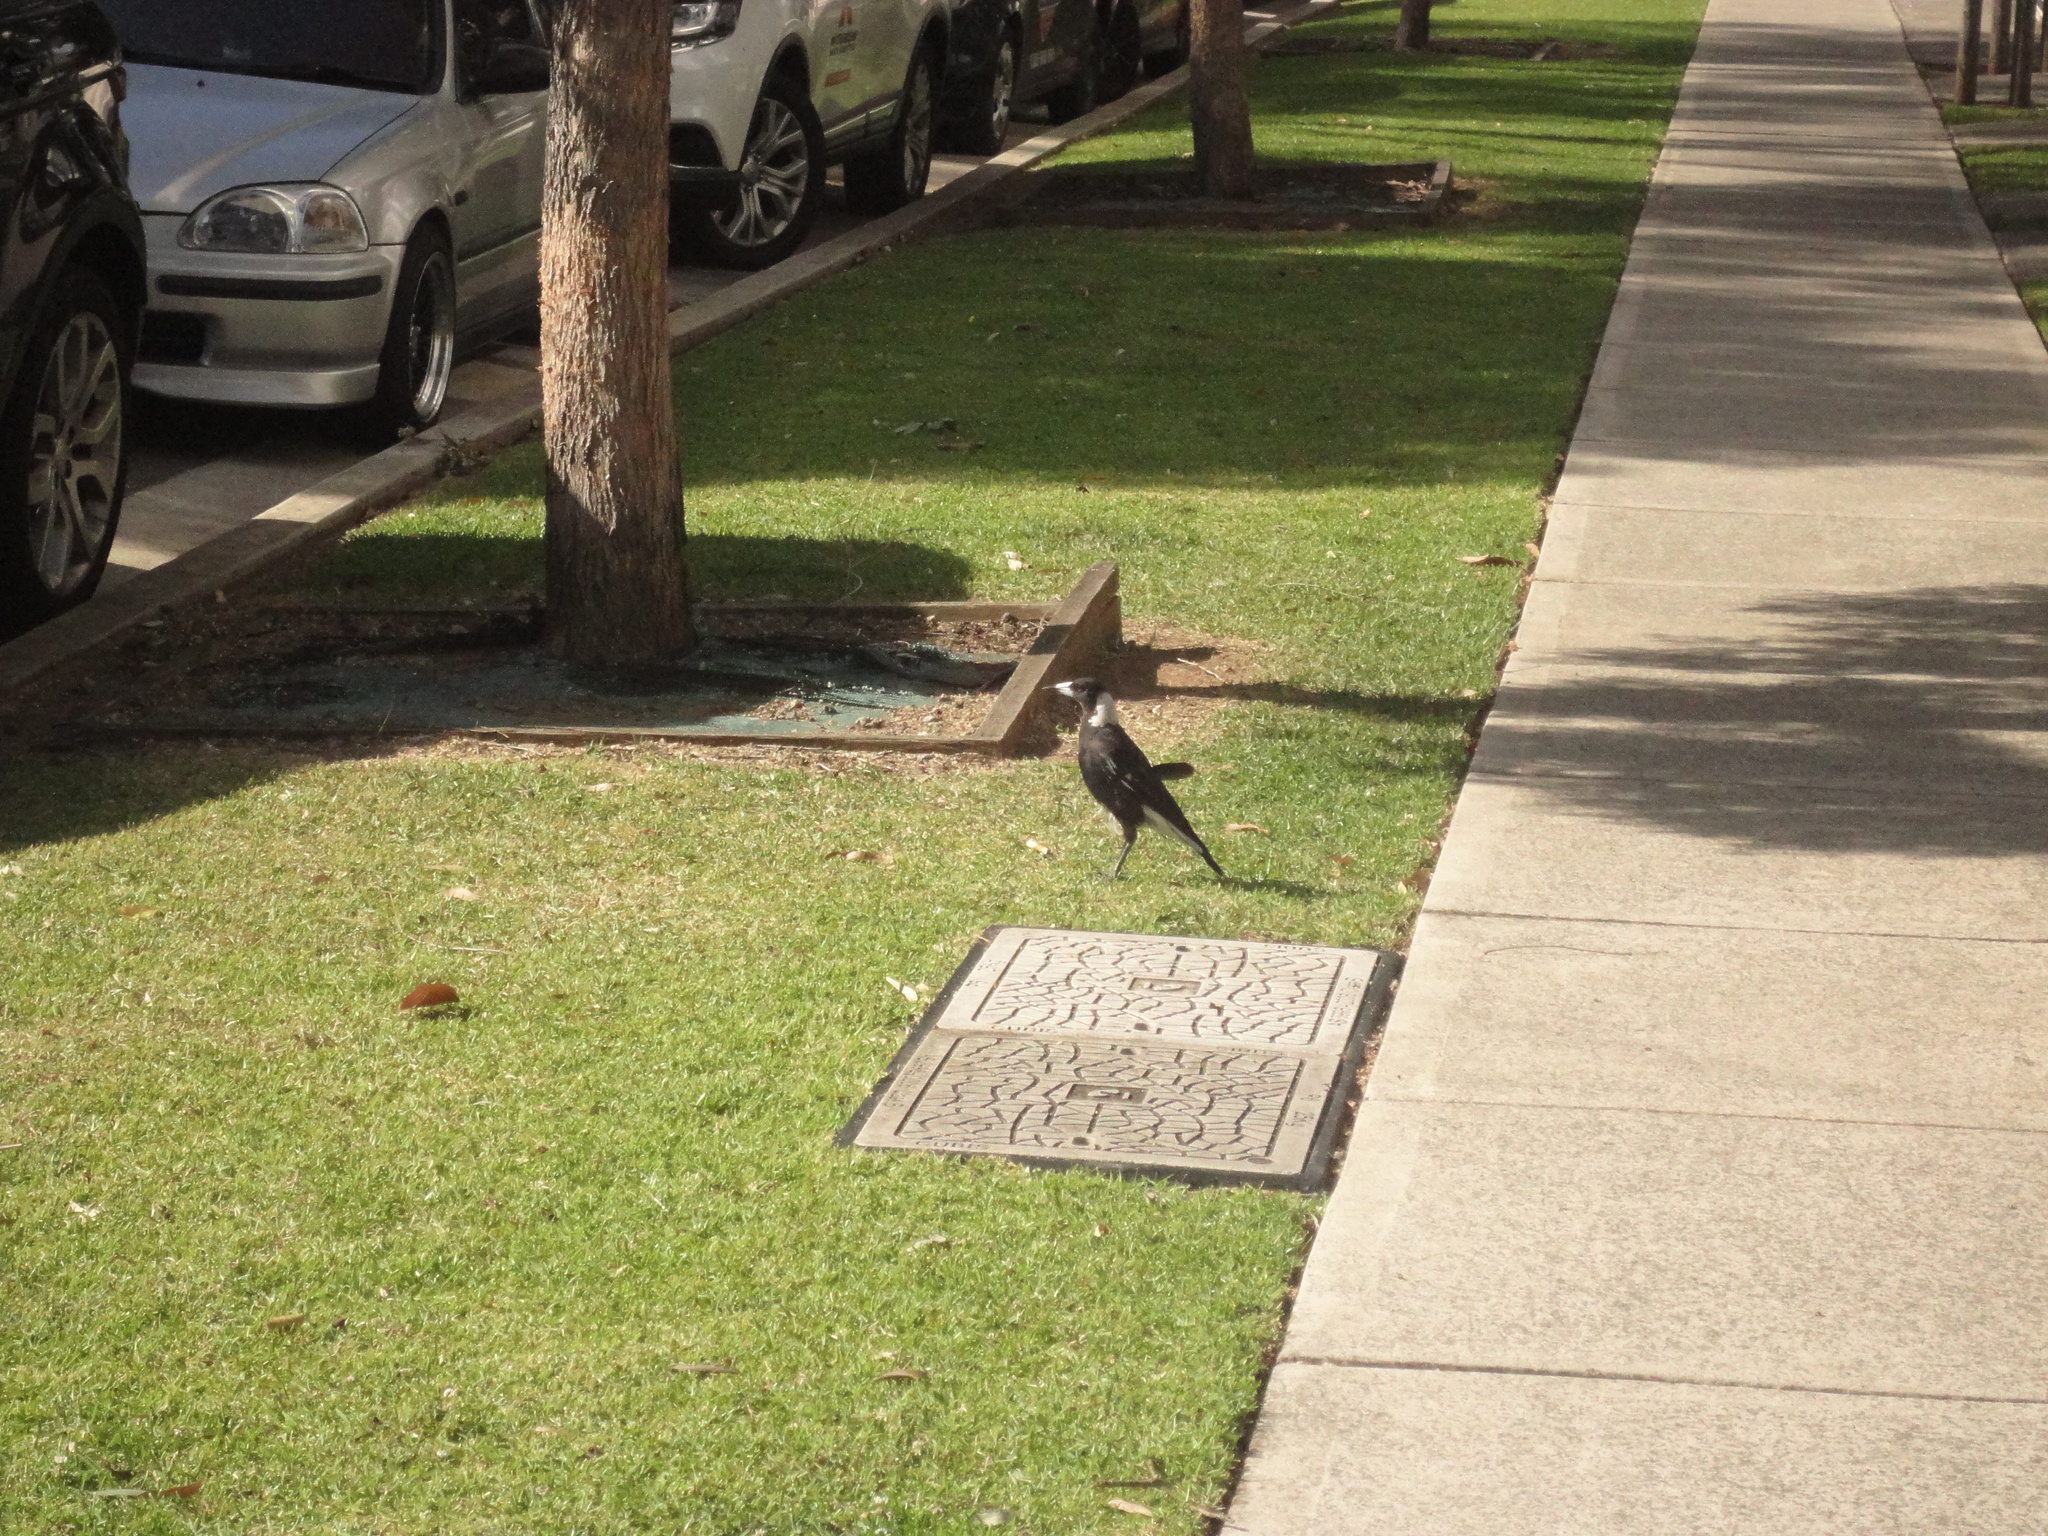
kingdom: Animalia
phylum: Chordata
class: Aves
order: Passeriformes
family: Cracticidae
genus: Gymnorhina
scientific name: Gymnorhina tibicen
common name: Australian magpie
